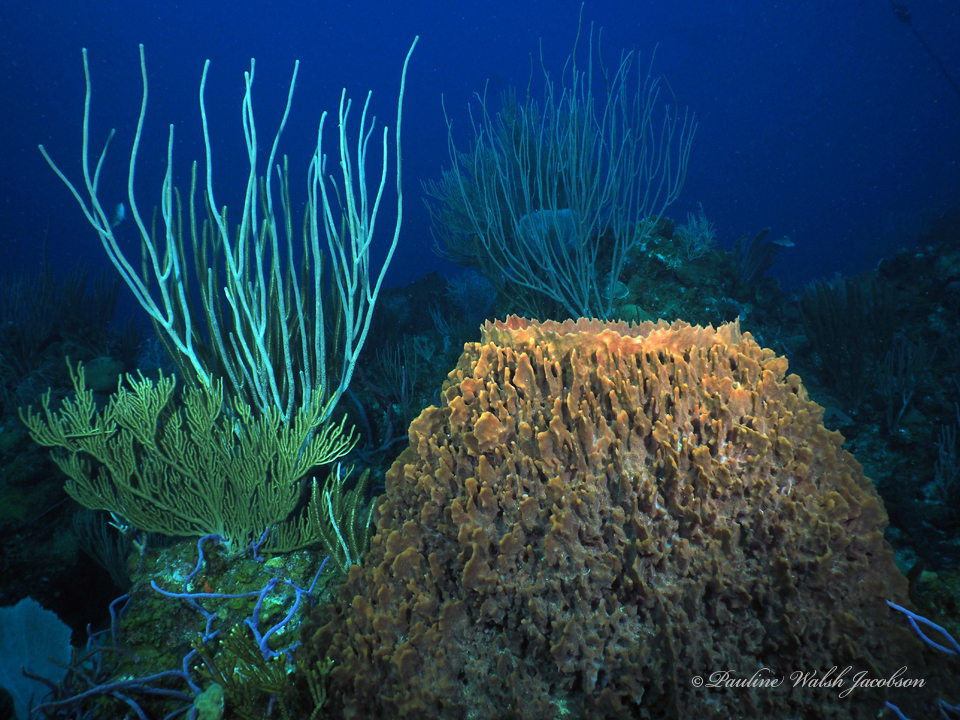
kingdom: Animalia
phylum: Porifera
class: Demospongiae
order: Haplosclerida
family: Petrosiidae
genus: Xestospongia
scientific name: Xestospongia muta
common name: Giant barrel sponge
